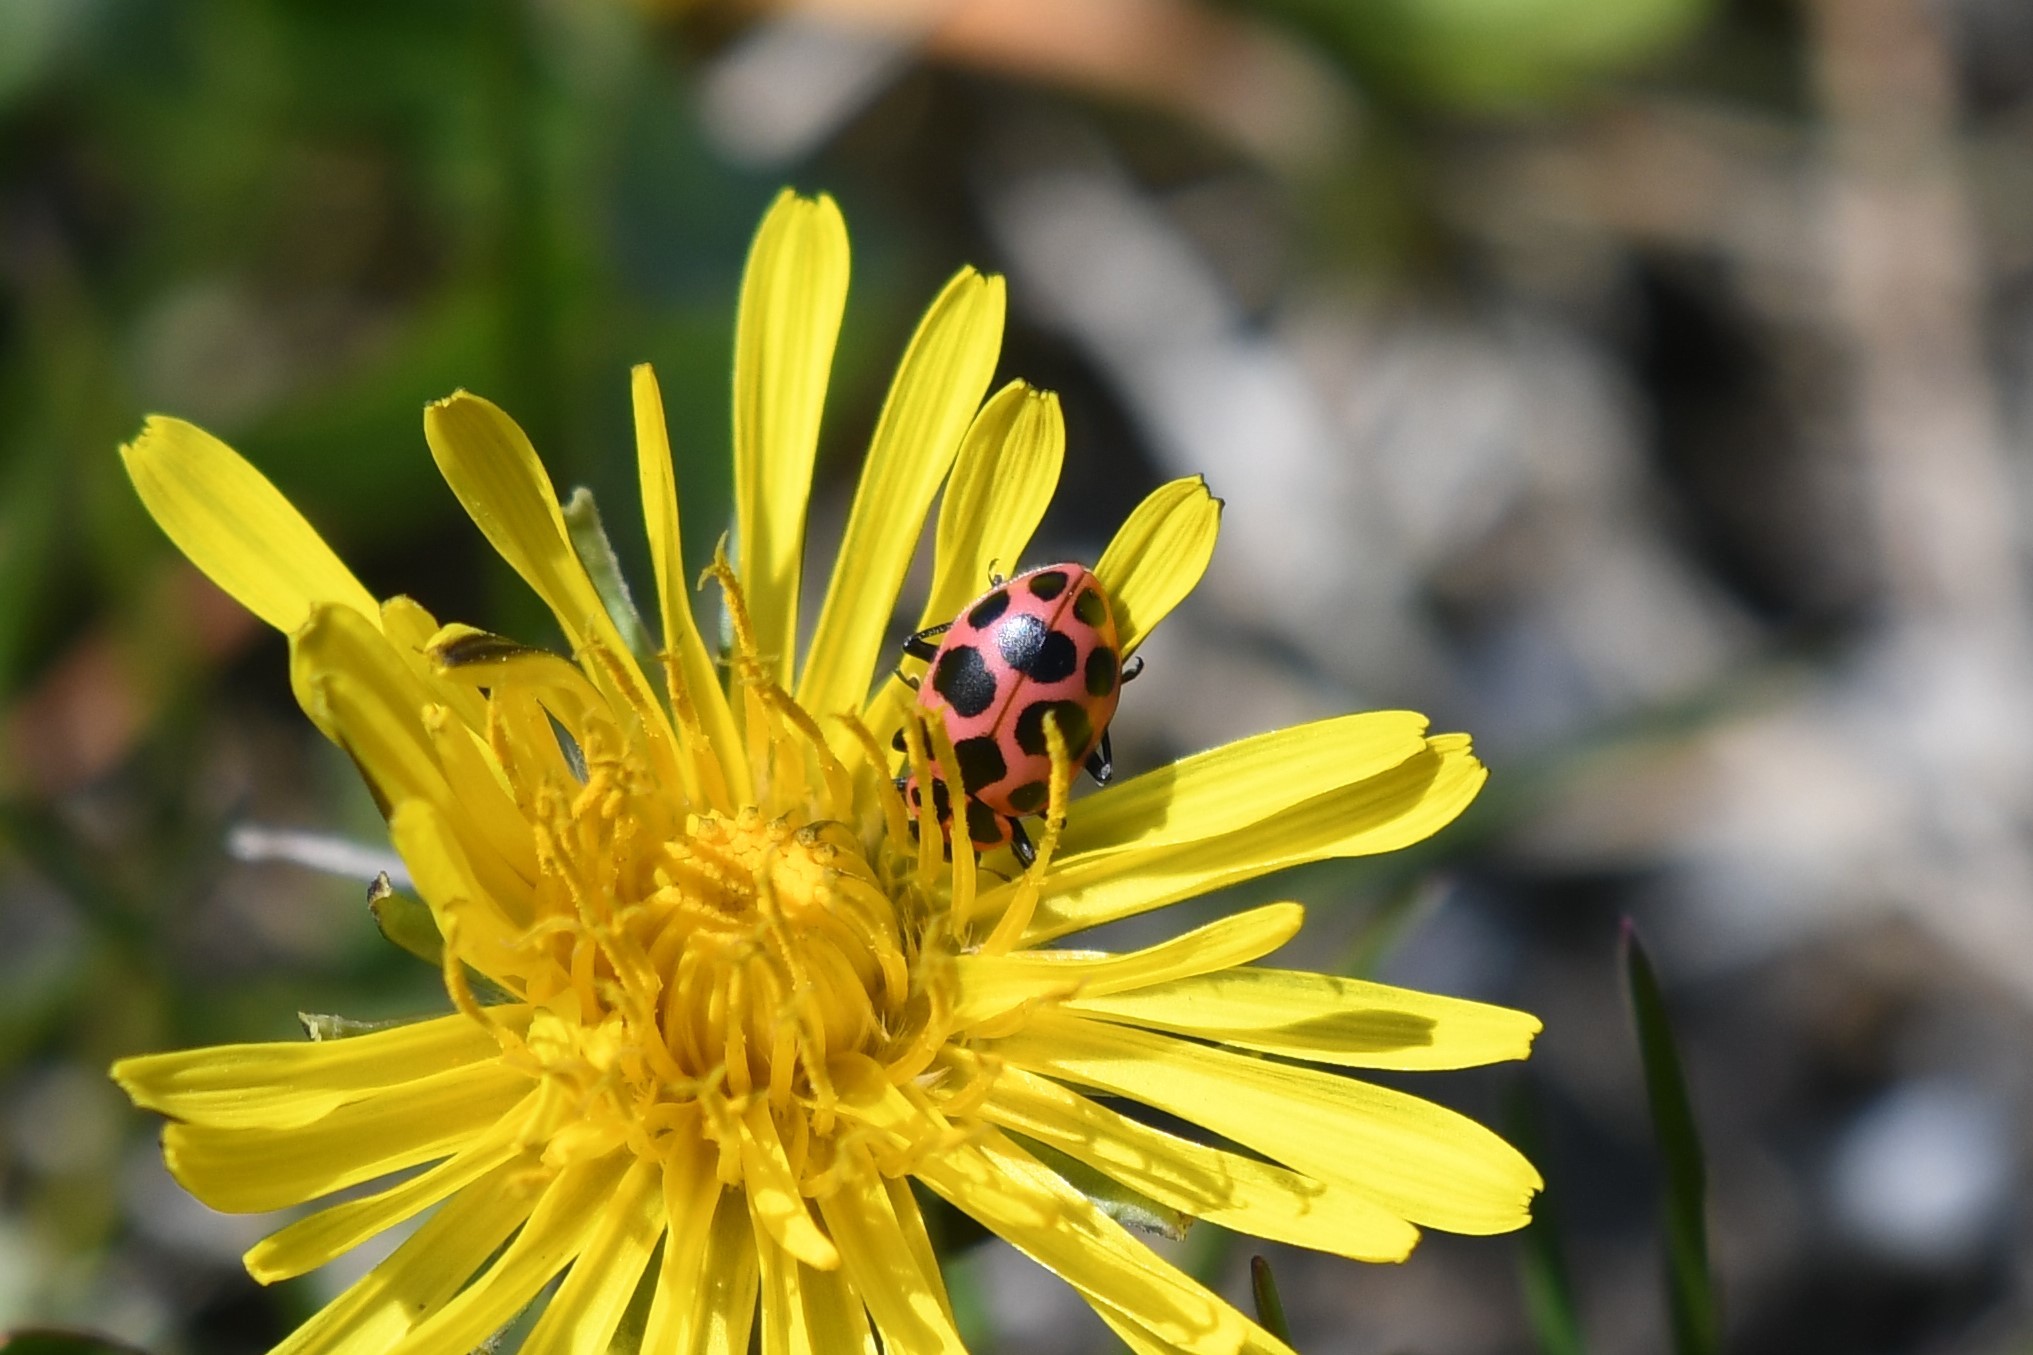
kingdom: Animalia
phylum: Arthropoda
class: Insecta
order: Coleoptera
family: Coccinellidae
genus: Coleomegilla
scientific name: Coleomegilla maculata
